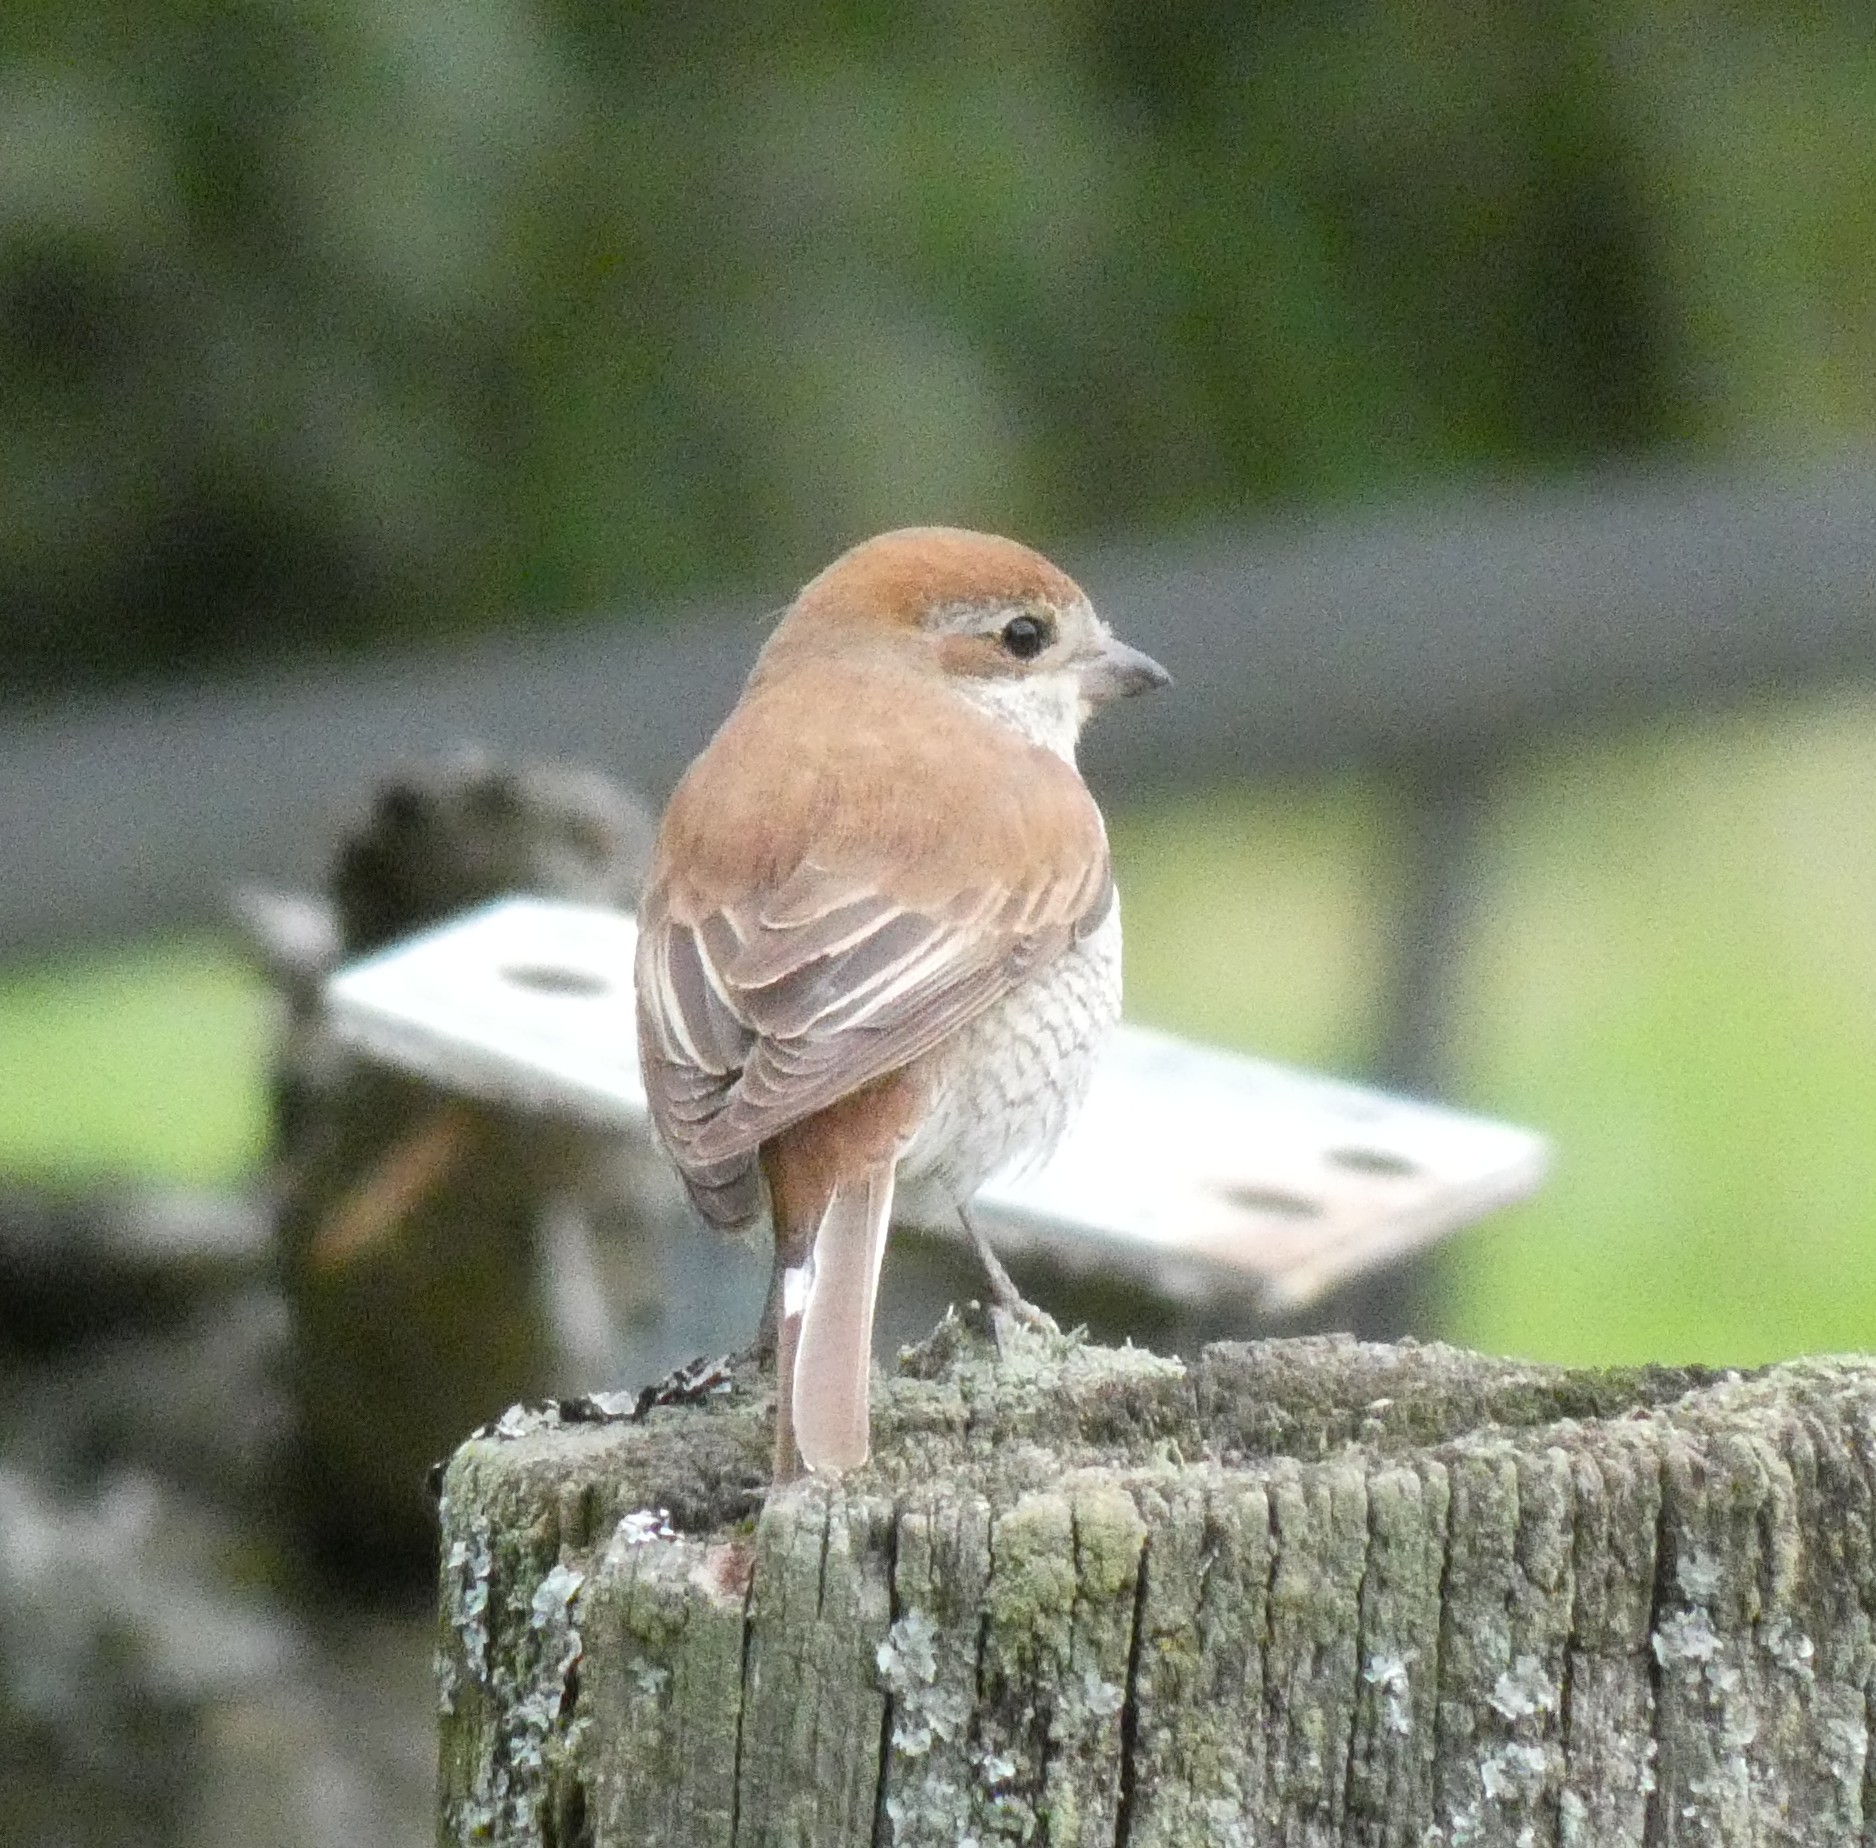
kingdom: Animalia
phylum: Chordata
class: Aves
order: Passeriformes
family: Laniidae
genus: Lanius
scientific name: Lanius collurio
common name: Red-backed shrike
